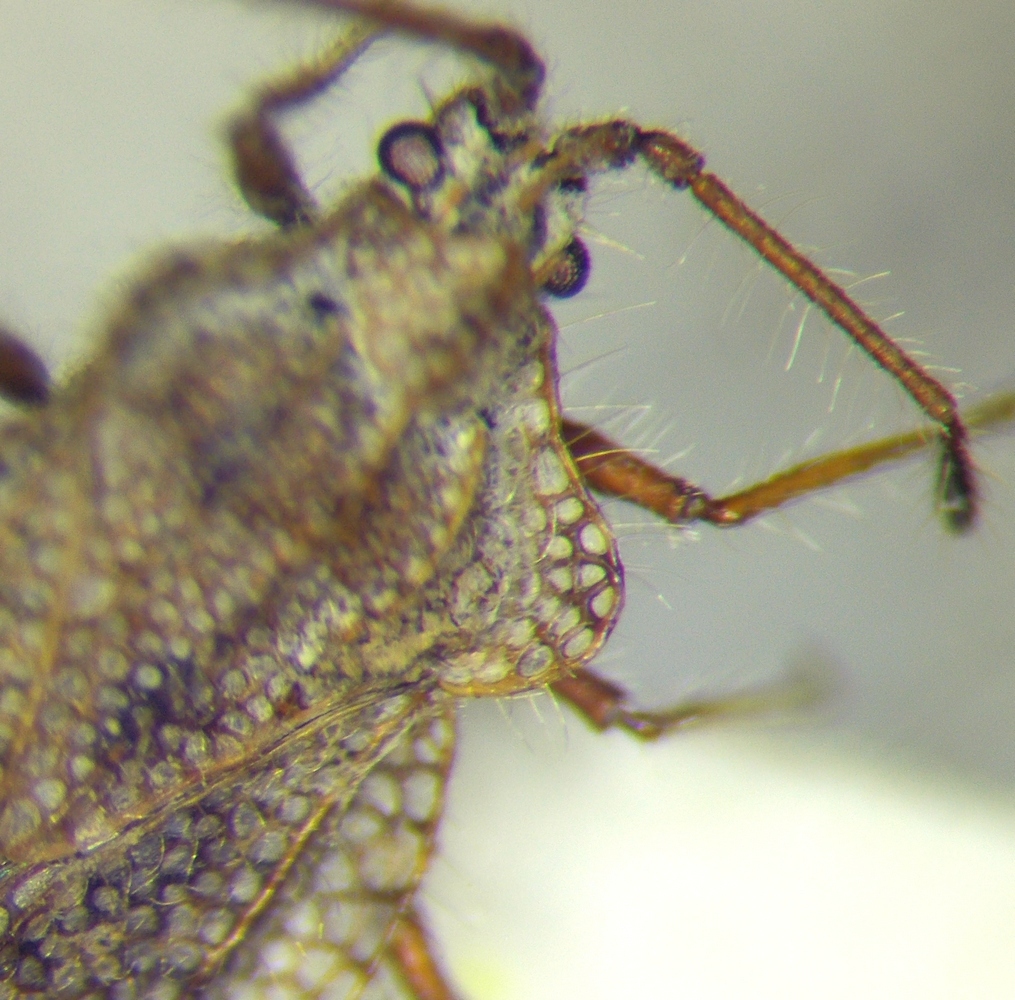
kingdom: Animalia
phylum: Arthropoda
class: Insecta
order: Hemiptera
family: Tingidae
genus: Tingis
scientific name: Tingis ciliaris
